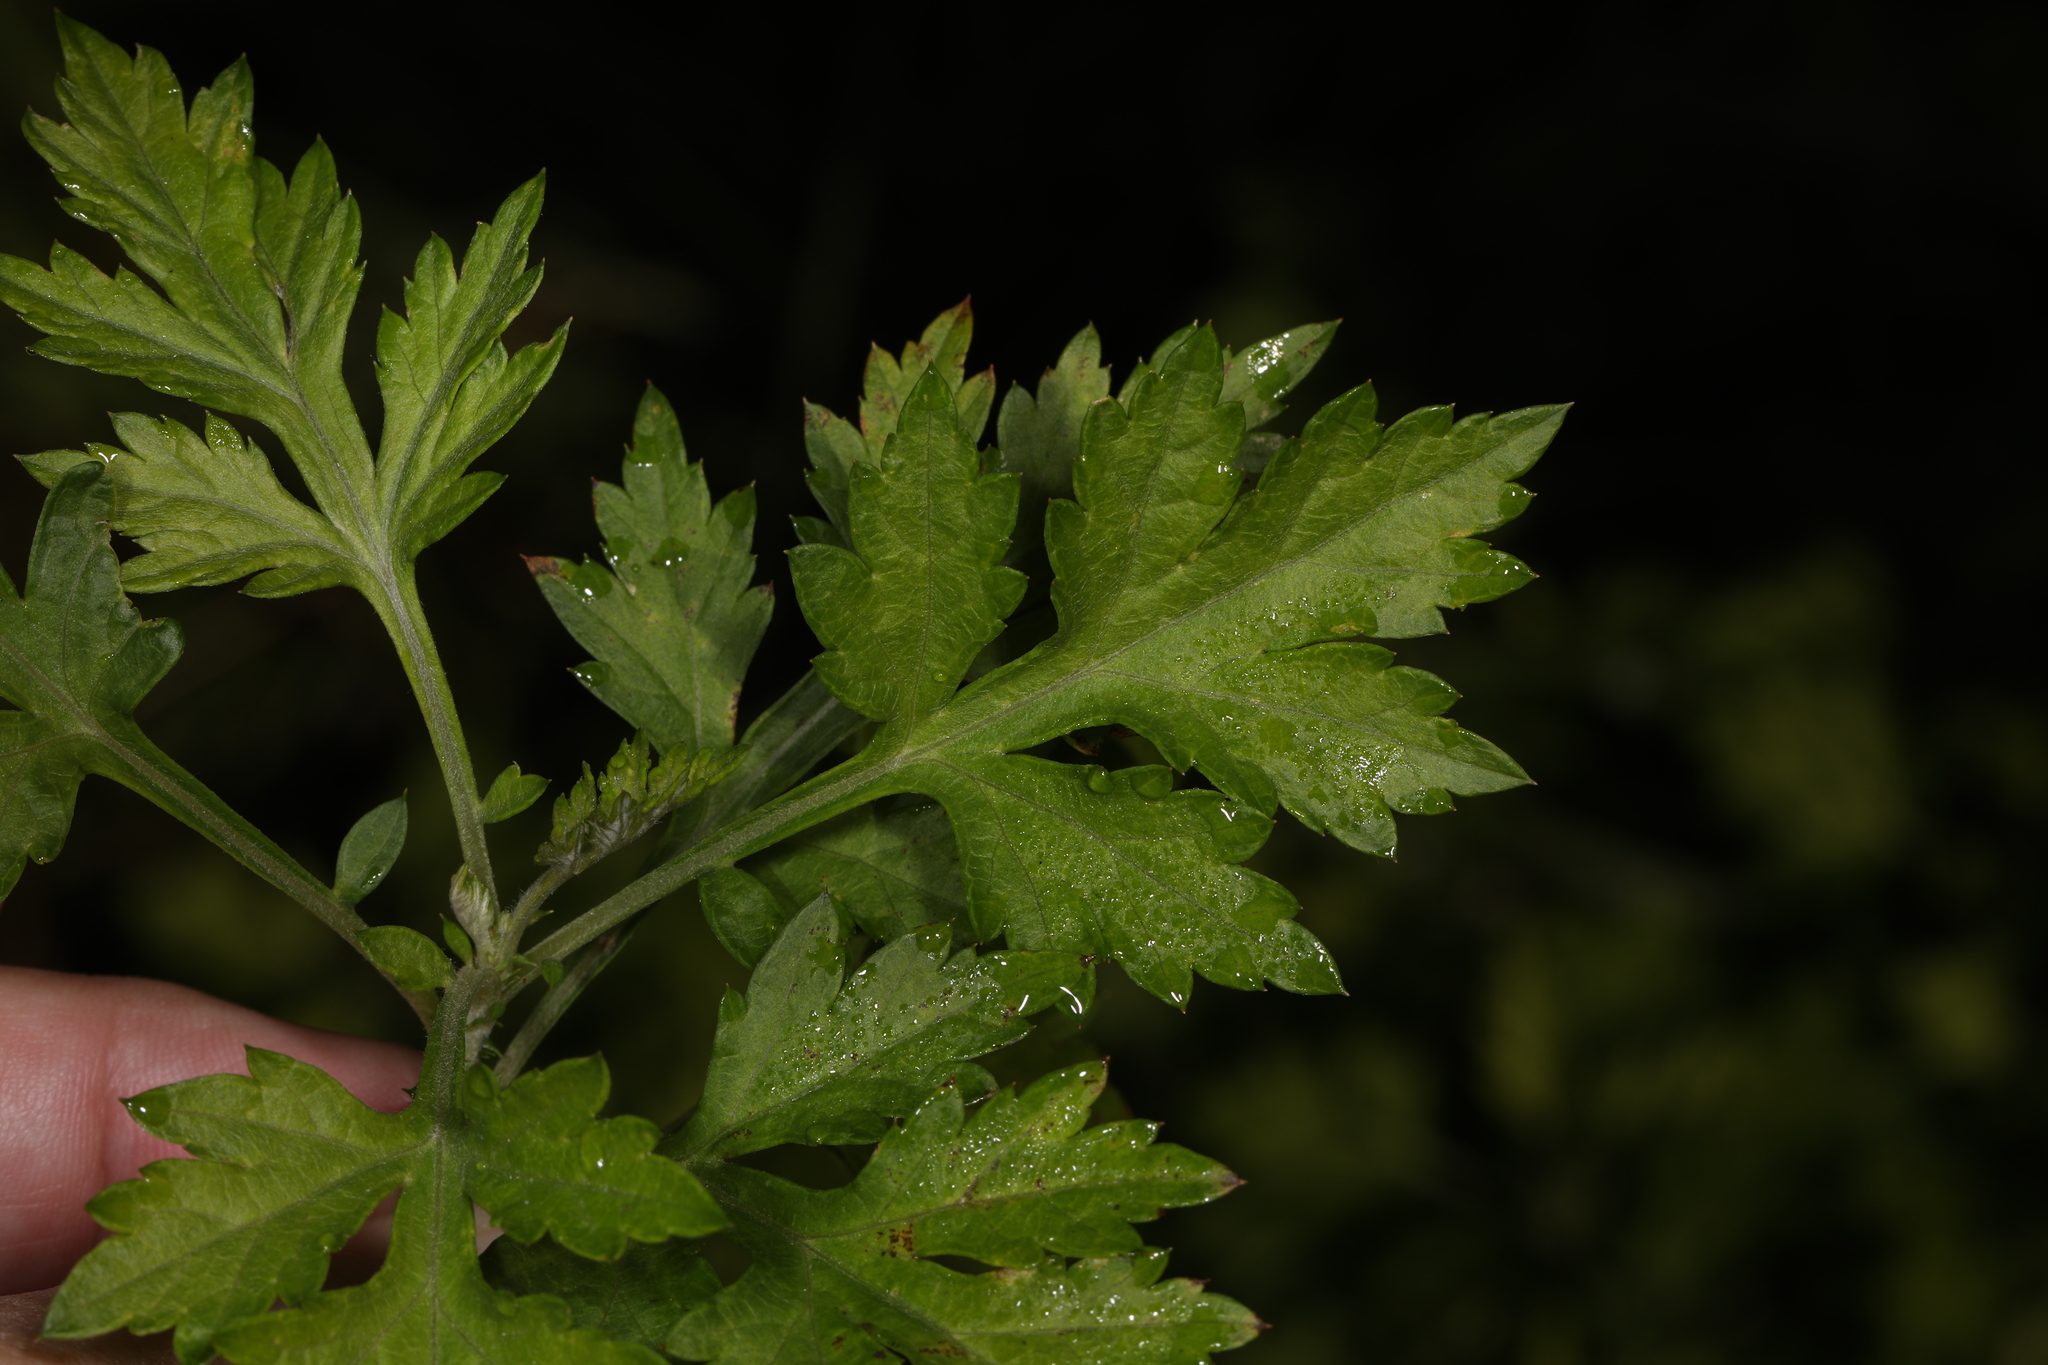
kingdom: Plantae
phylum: Tracheophyta
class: Magnoliopsida
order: Asterales
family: Asteraceae
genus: Artemisia
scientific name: Artemisia vulgaris
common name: Mugwort
